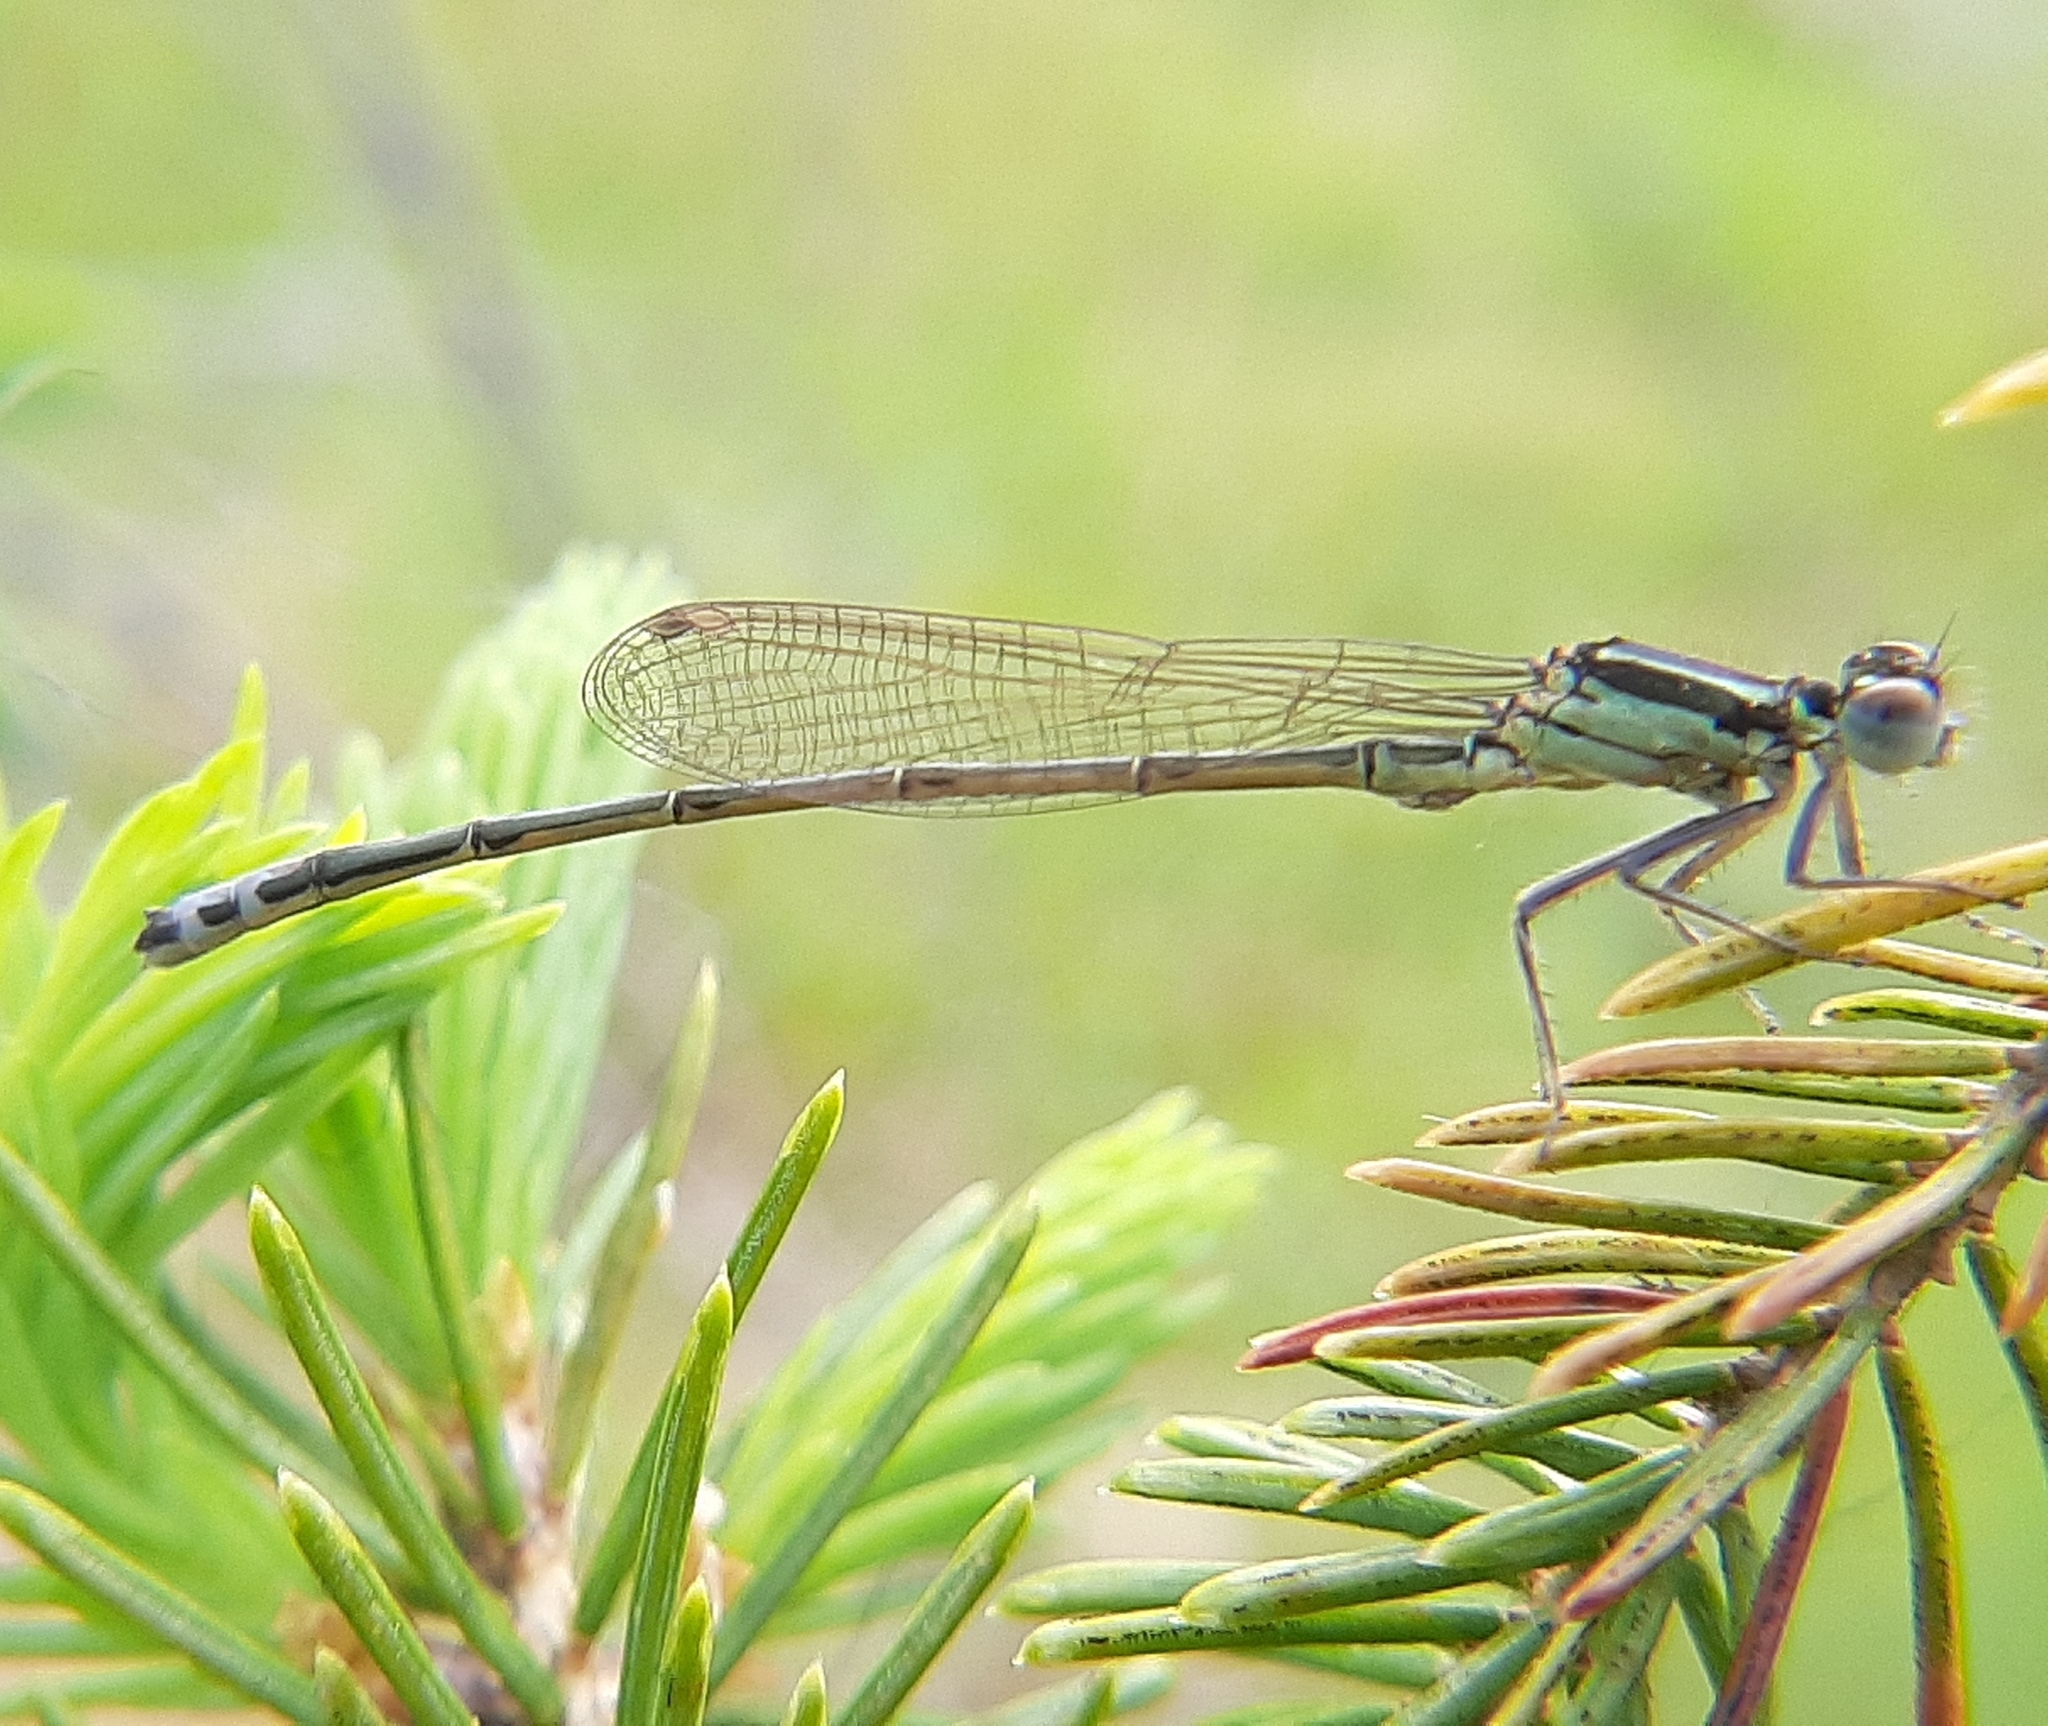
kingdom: Animalia
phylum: Arthropoda
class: Insecta
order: Odonata
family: Coenagrionidae
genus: Ischnura
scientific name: Ischnura verticalis
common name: Eastern forktail
